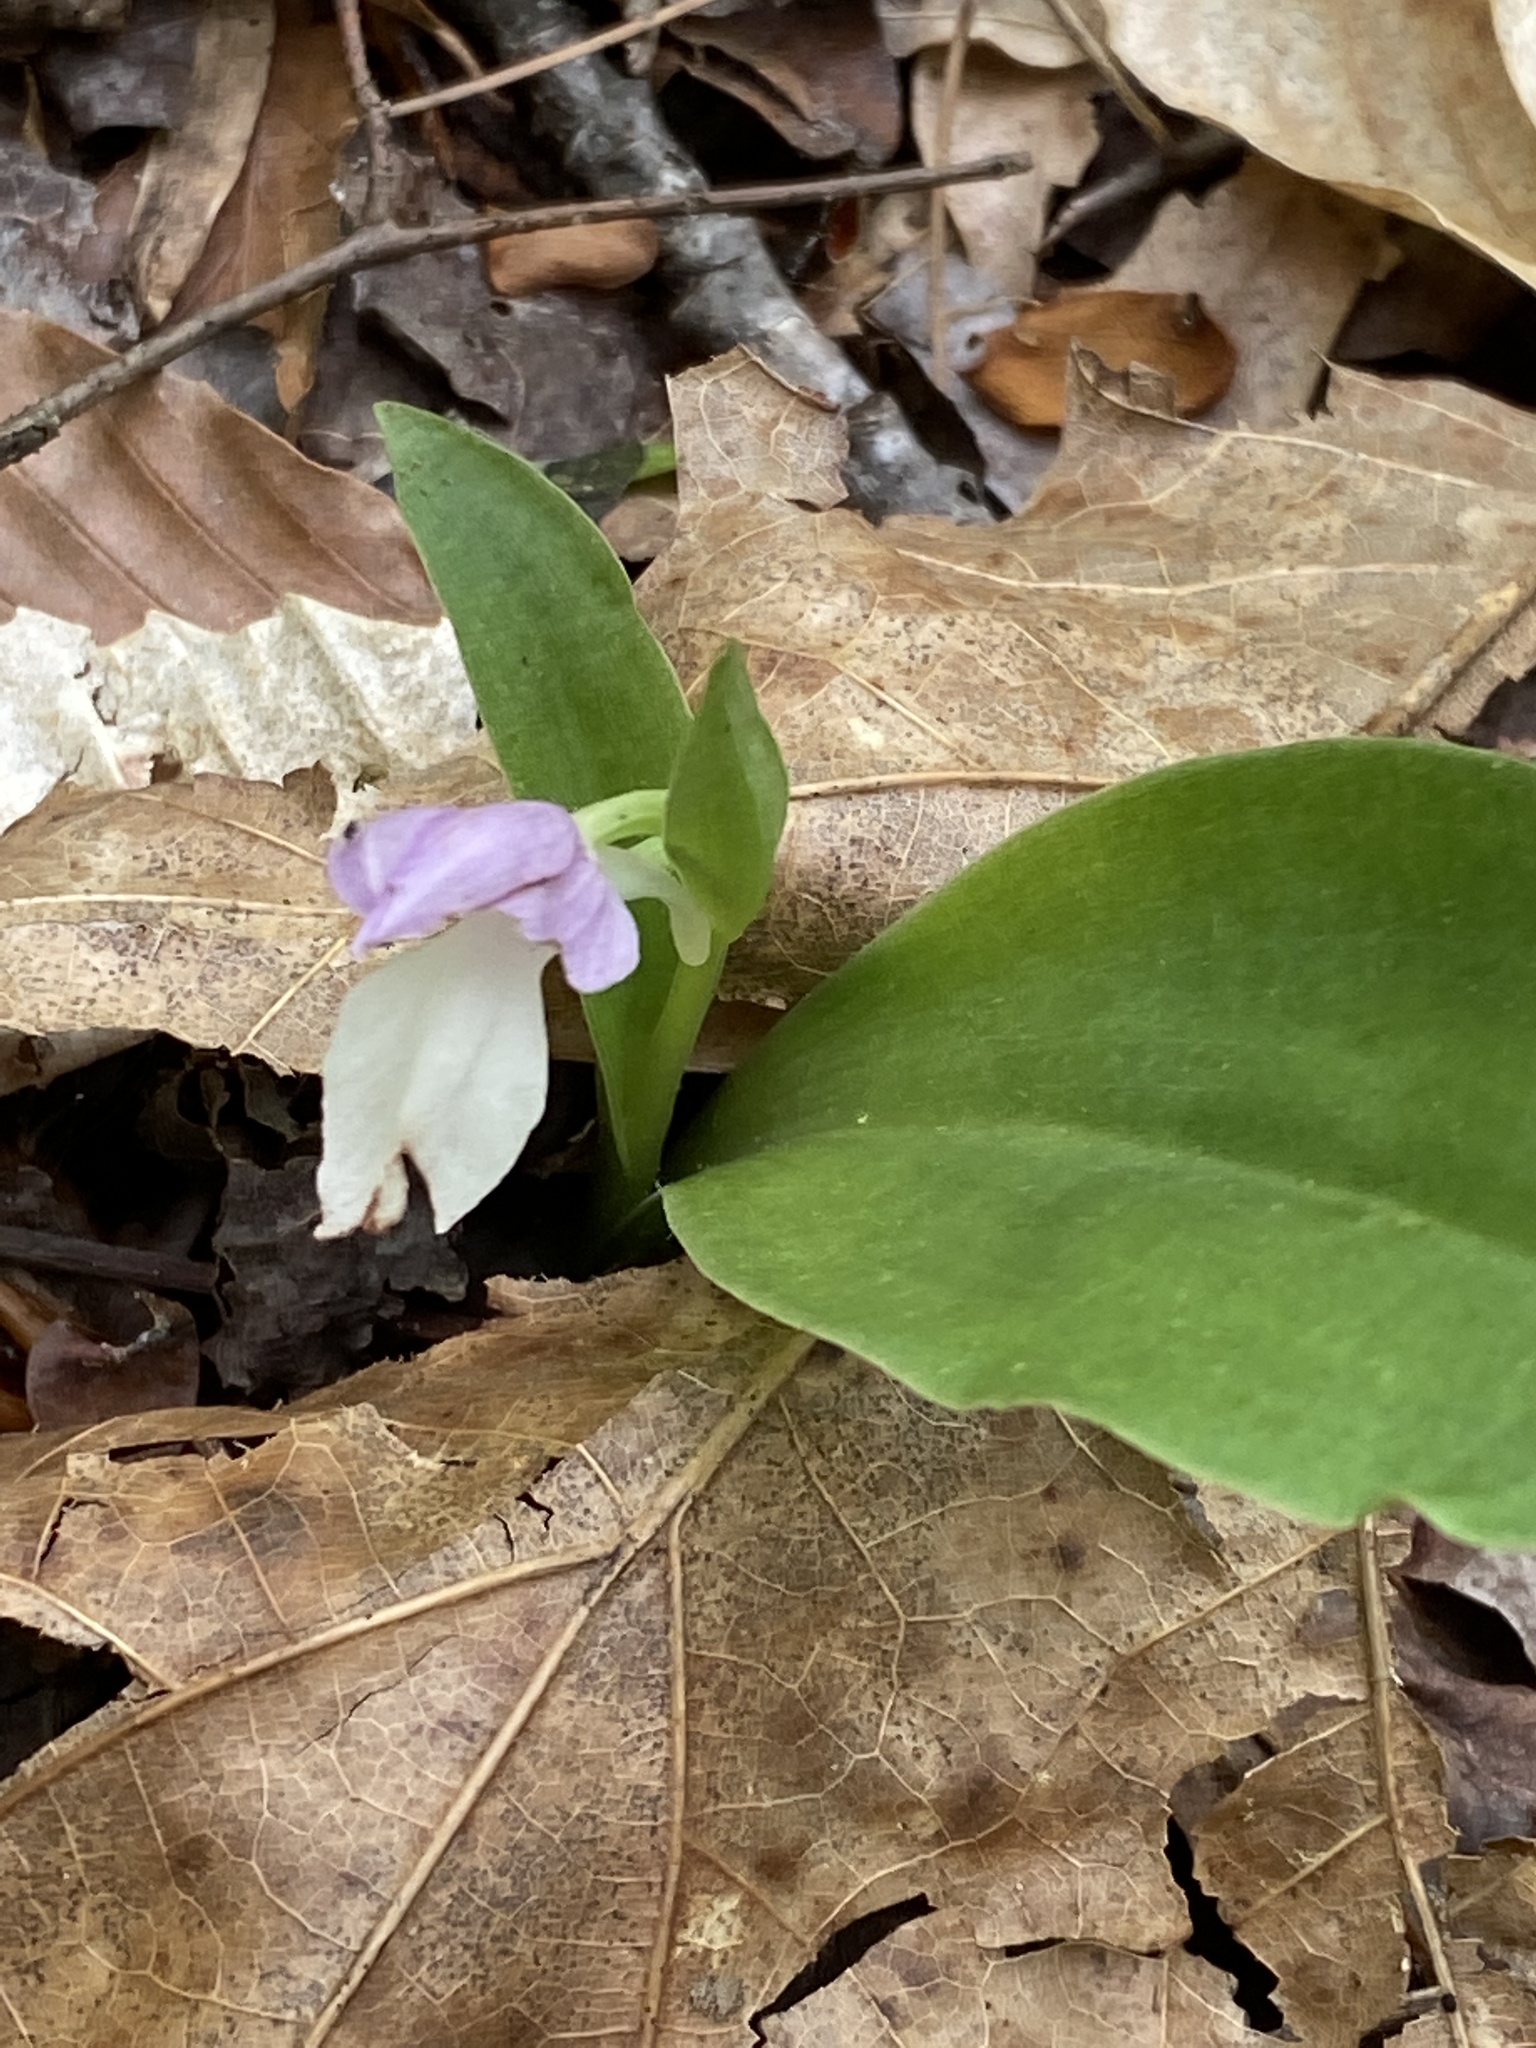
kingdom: Plantae
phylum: Tracheophyta
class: Liliopsida
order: Asparagales
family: Orchidaceae
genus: Galearis
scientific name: Galearis spectabilis
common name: Purple-hooded orchis
